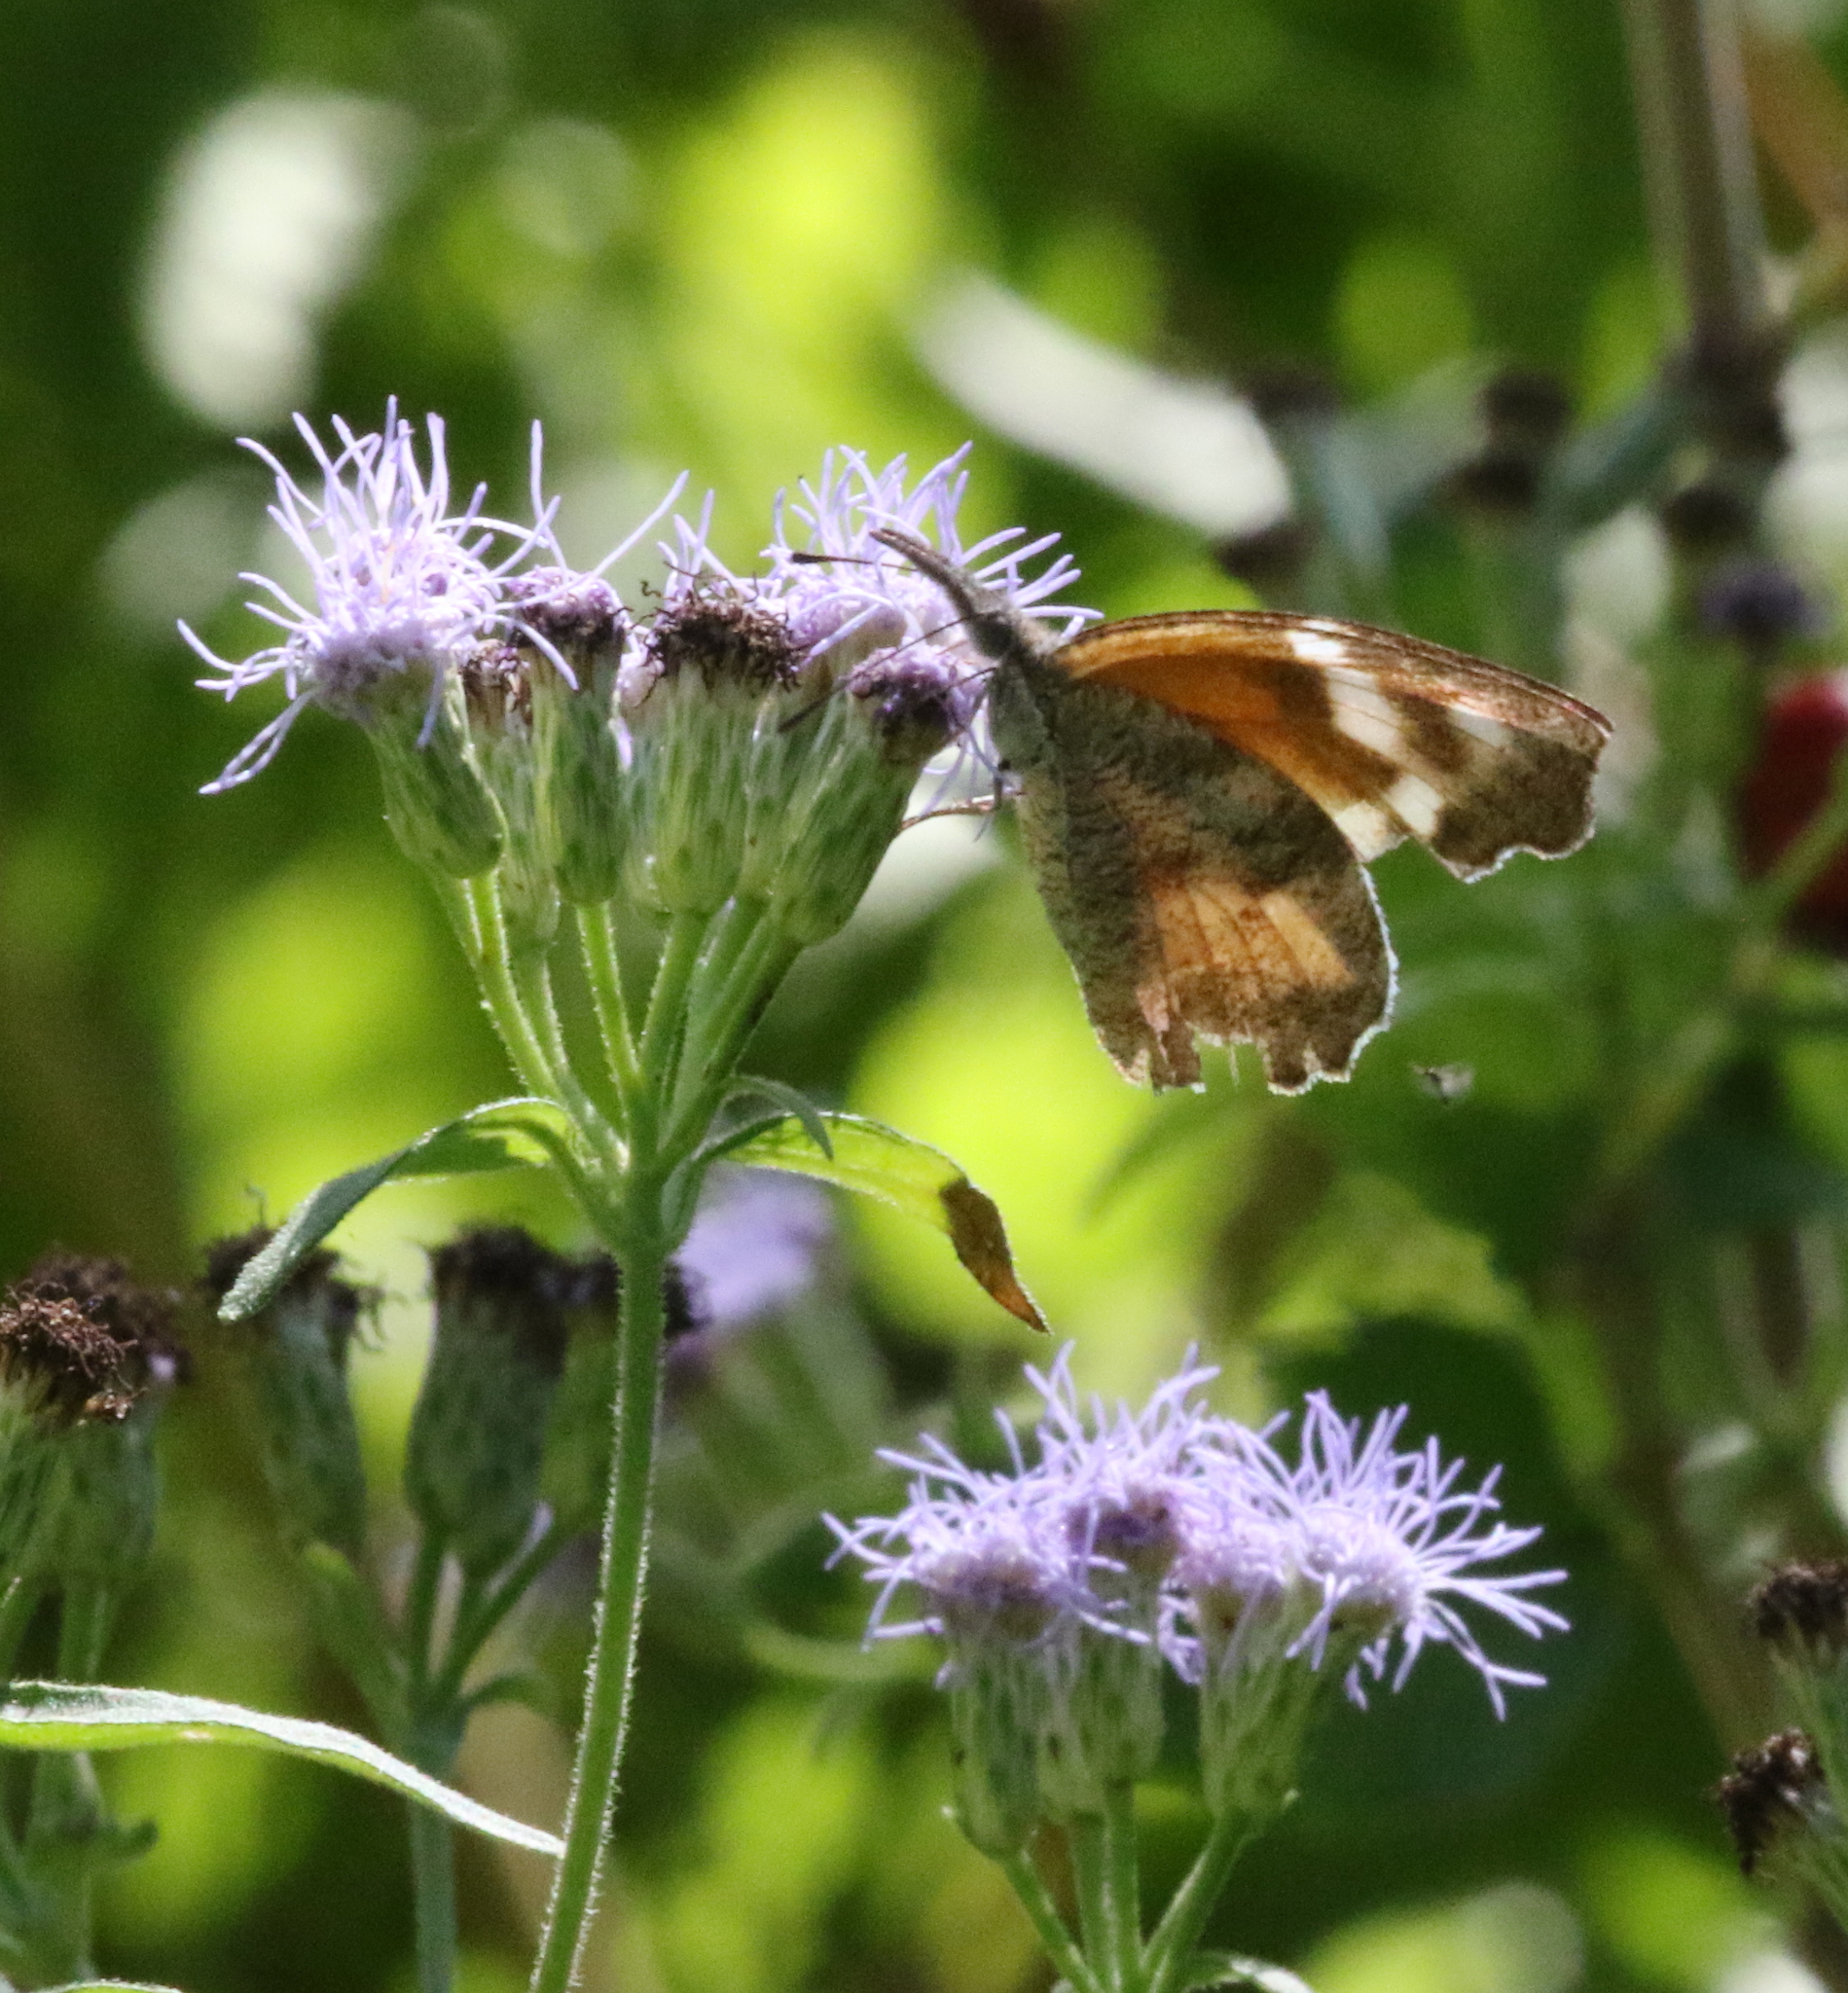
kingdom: Animalia
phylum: Arthropoda
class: Insecta
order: Lepidoptera
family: Nymphalidae
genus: Libytheana
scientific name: Libytheana carinenta
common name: American snout
